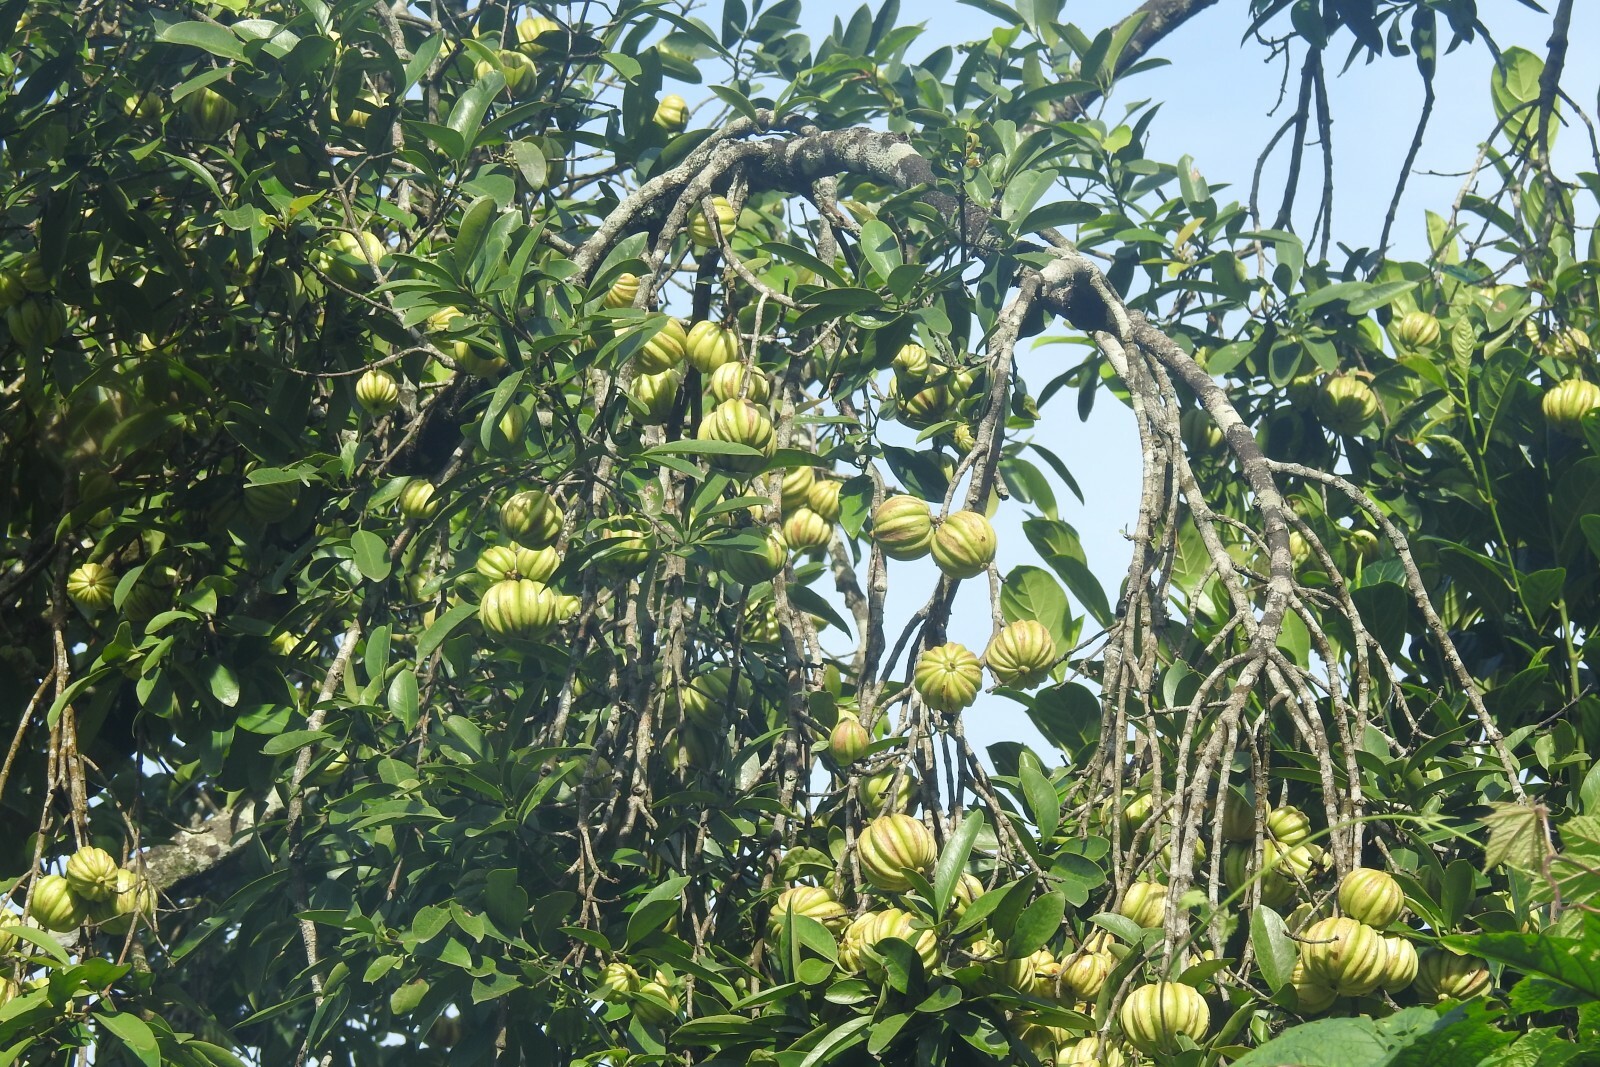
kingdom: Plantae
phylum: Tracheophyta
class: Magnoliopsida
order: Malpighiales
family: Clusiaceae
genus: Garcinia
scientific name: Garcinia gummi-gutta
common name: Malabar tamarind
